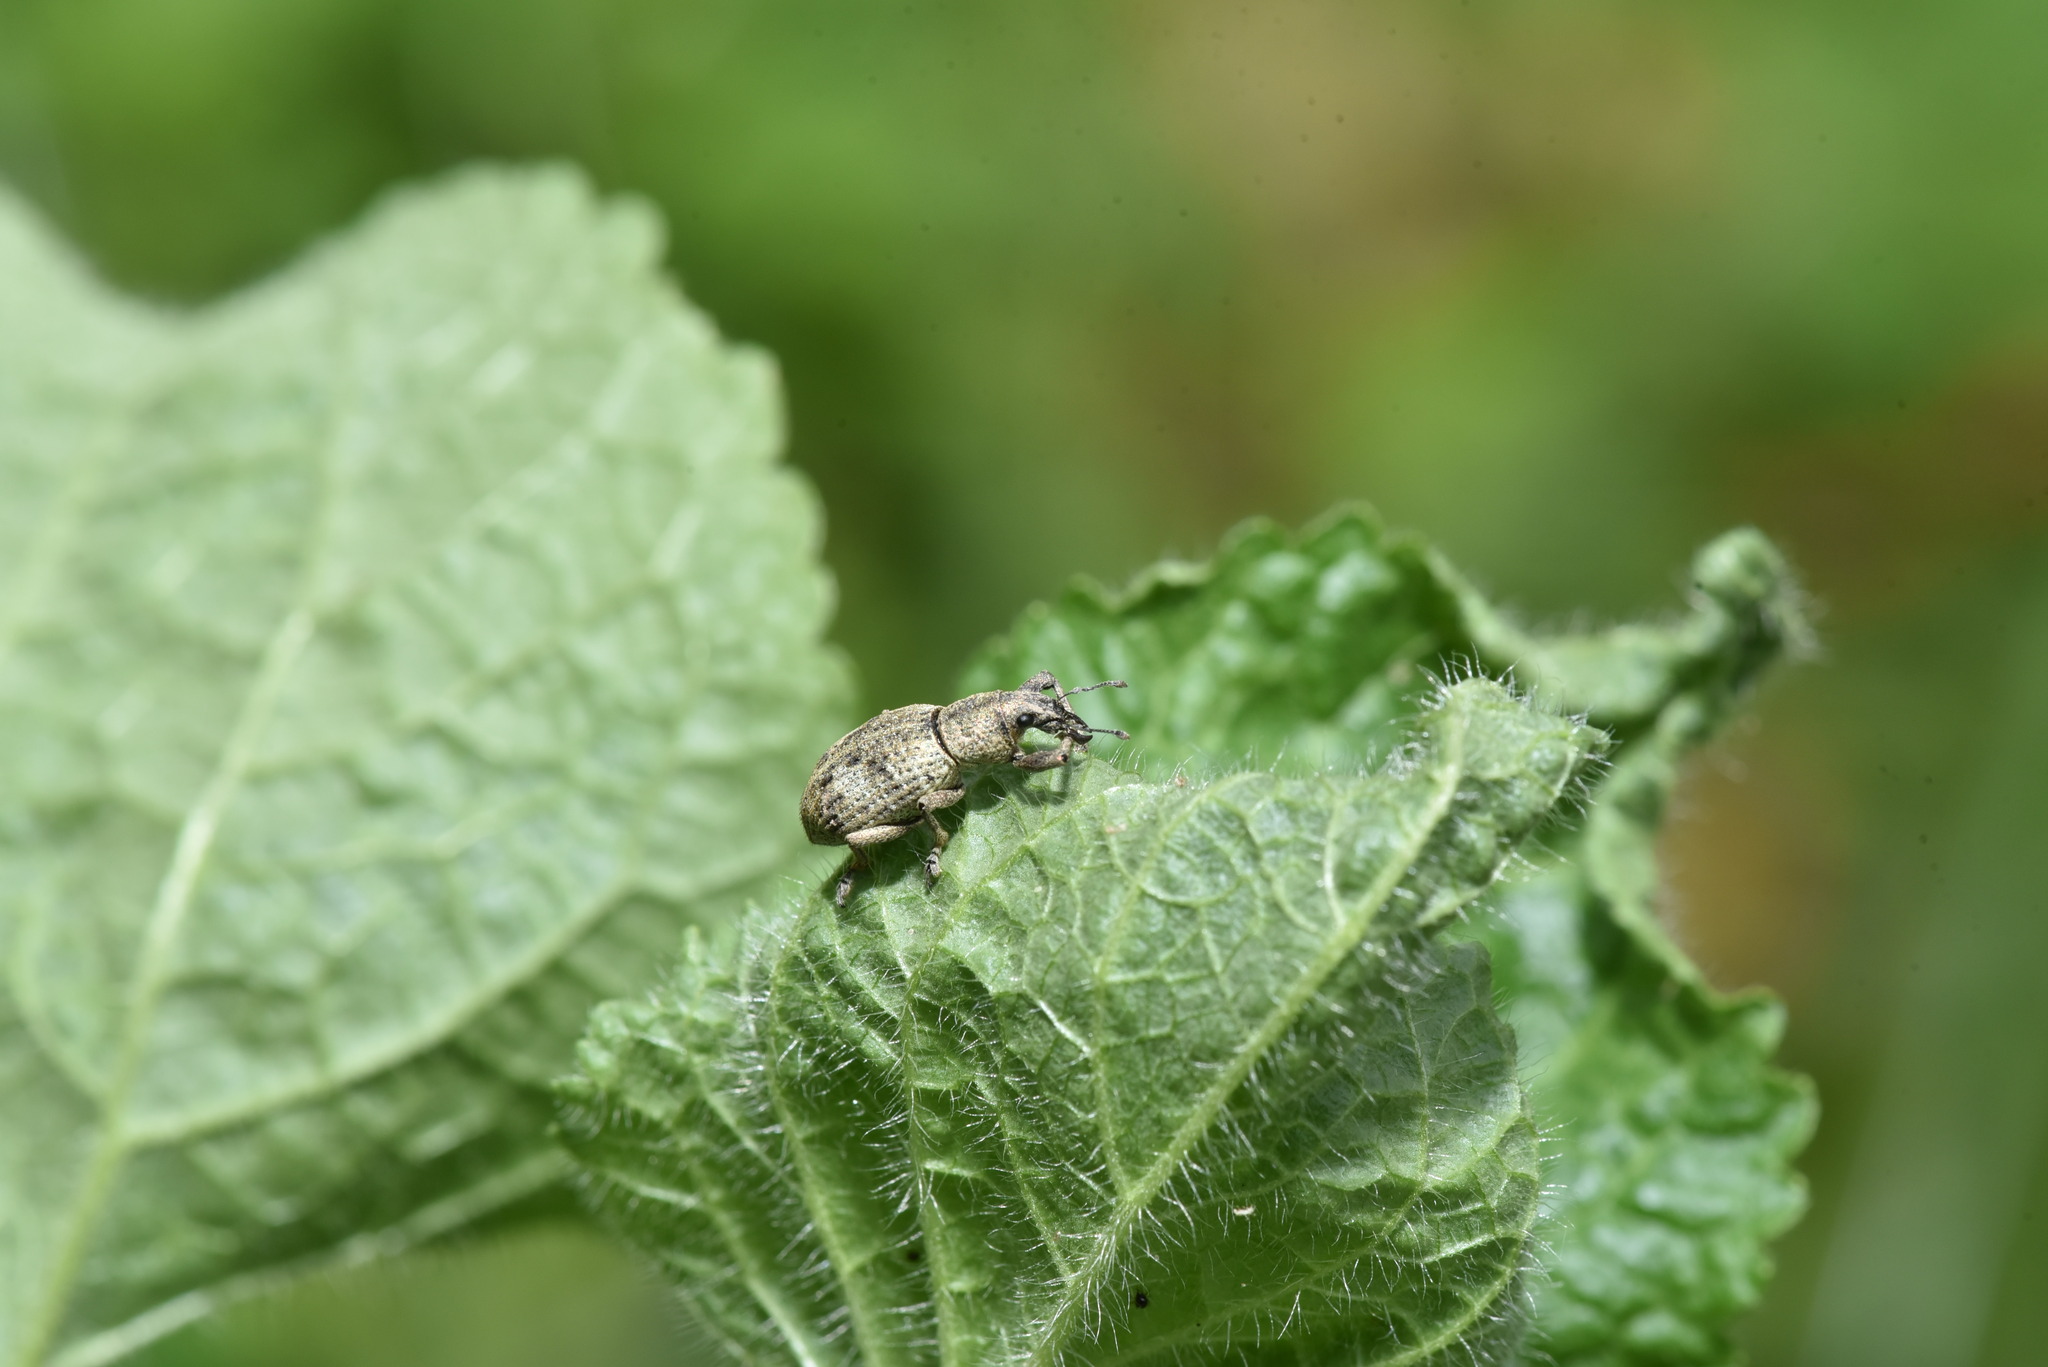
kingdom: Animalia
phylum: Arthropoda
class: Insecta
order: Coleoptera
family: Curculionidae
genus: Sympiezomias
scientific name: Sympiezomias cribricollis
